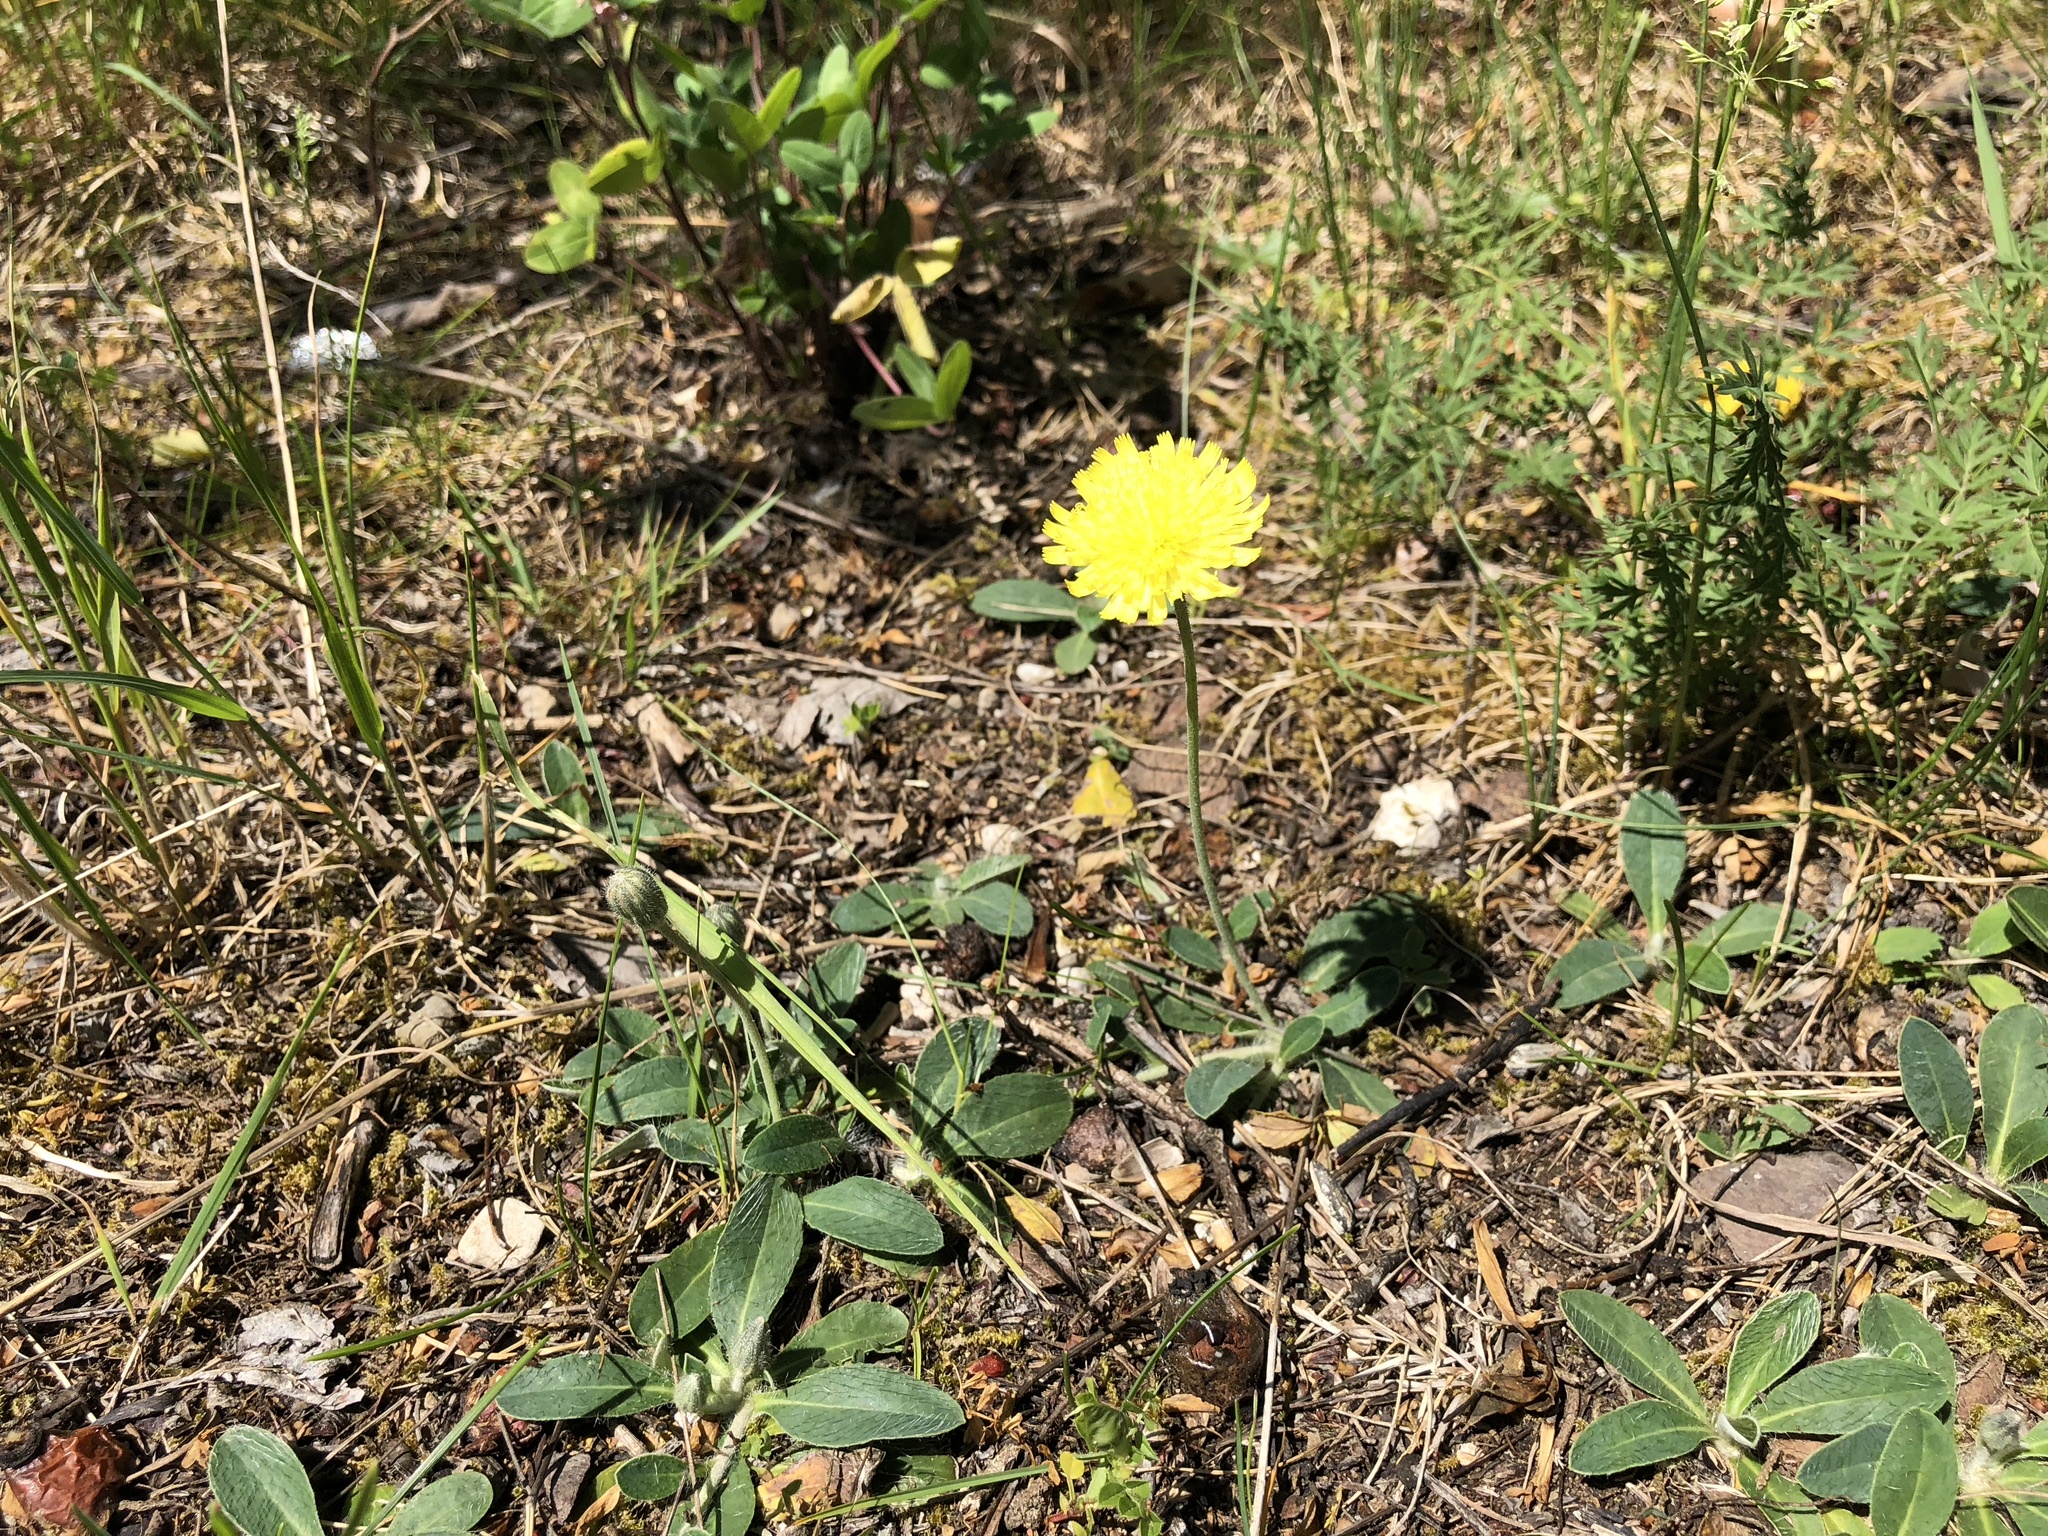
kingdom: Plantae
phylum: Tracheophyta
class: Magnoliopsida
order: Asterales
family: Asteraceae
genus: Pilosella
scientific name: Pilosella officinarum
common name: Mouse-ear hawkweed
